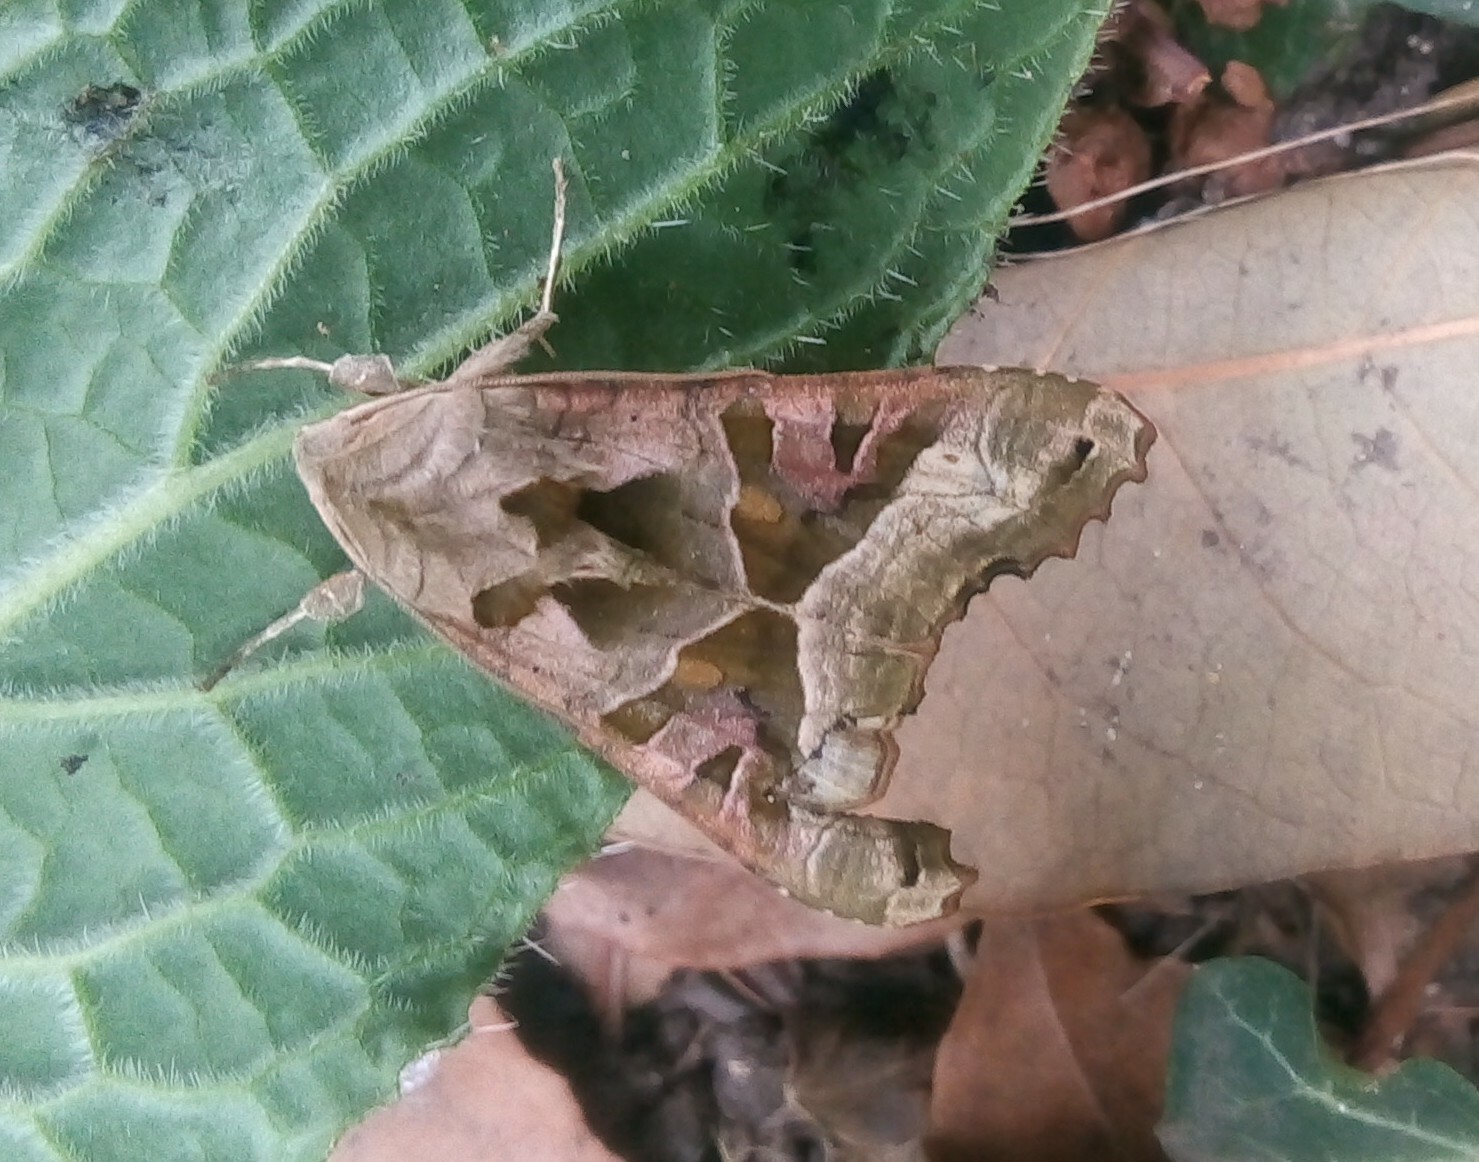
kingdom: Animalia
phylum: Arthropoda
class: Insecta
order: Lepidoptera
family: Noctuidae
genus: Phlogophora
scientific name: Phlogophora meticulosa
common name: Angle shades
